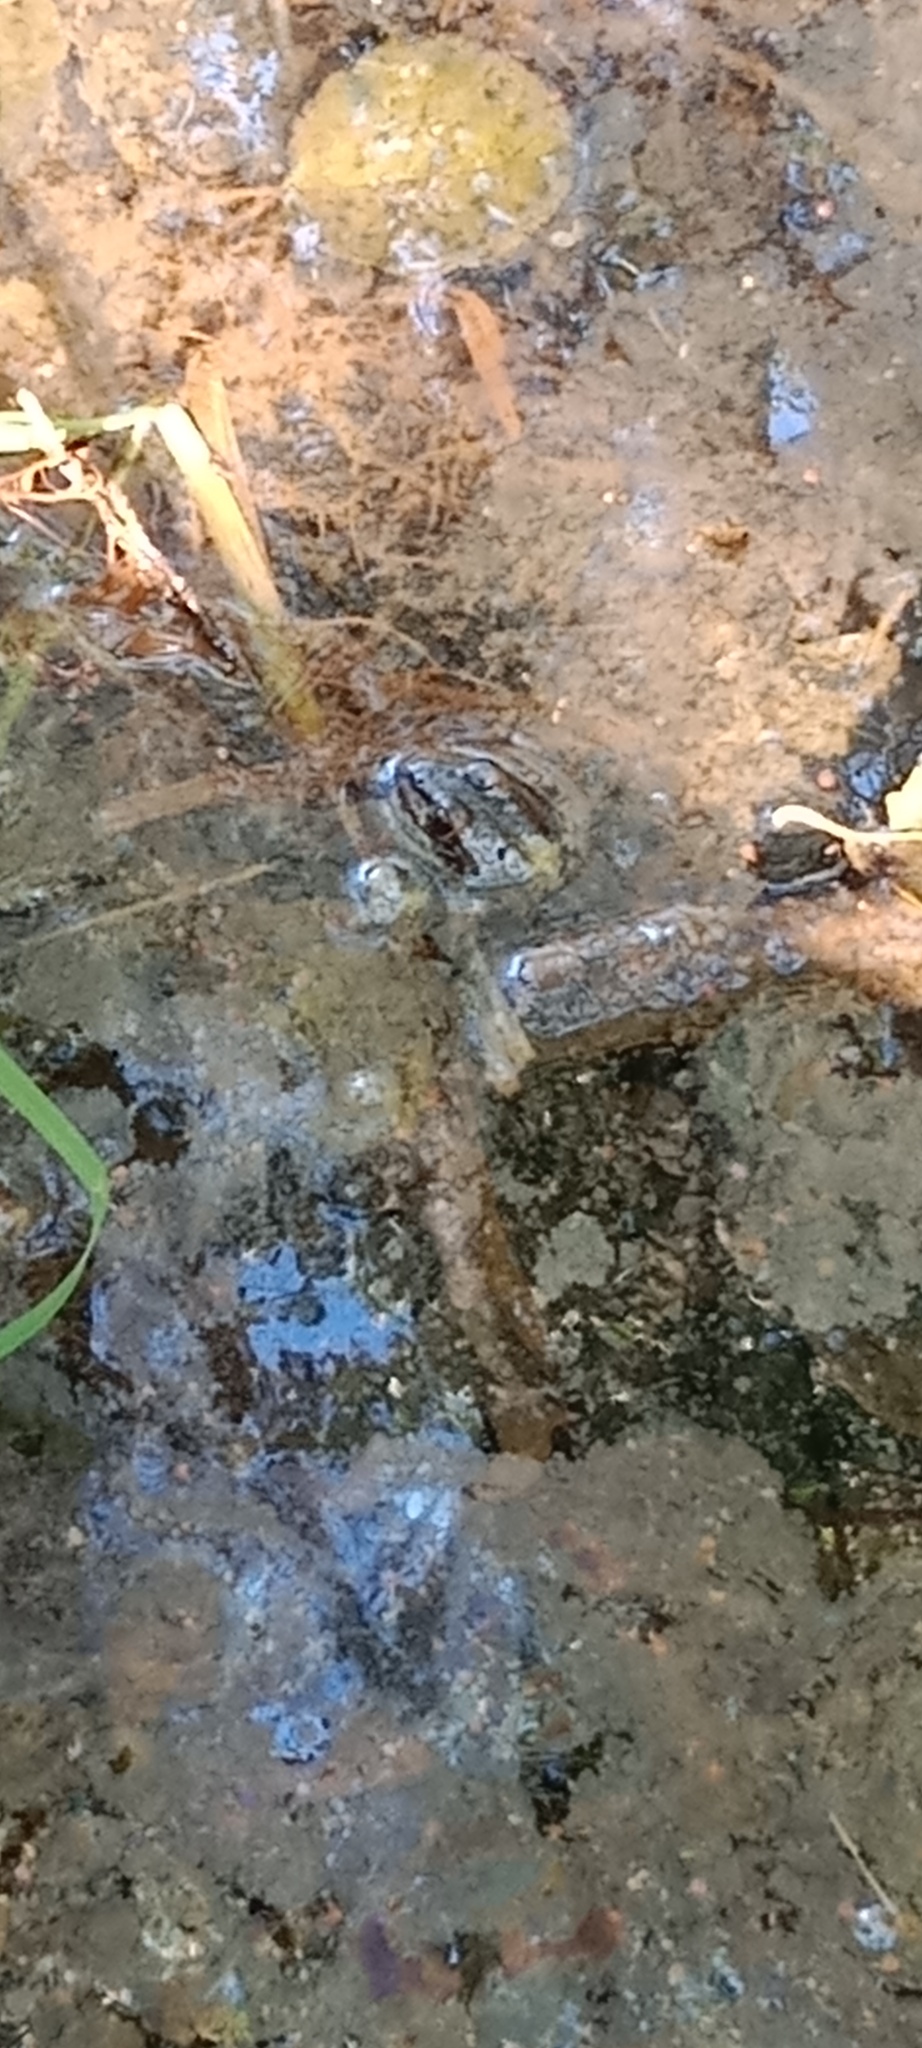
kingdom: Animalia
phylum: Chordata
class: Amphibia
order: Anura
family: Ranidae
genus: Pelophylax
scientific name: Pelophylax ridibundus
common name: Marsh frog
